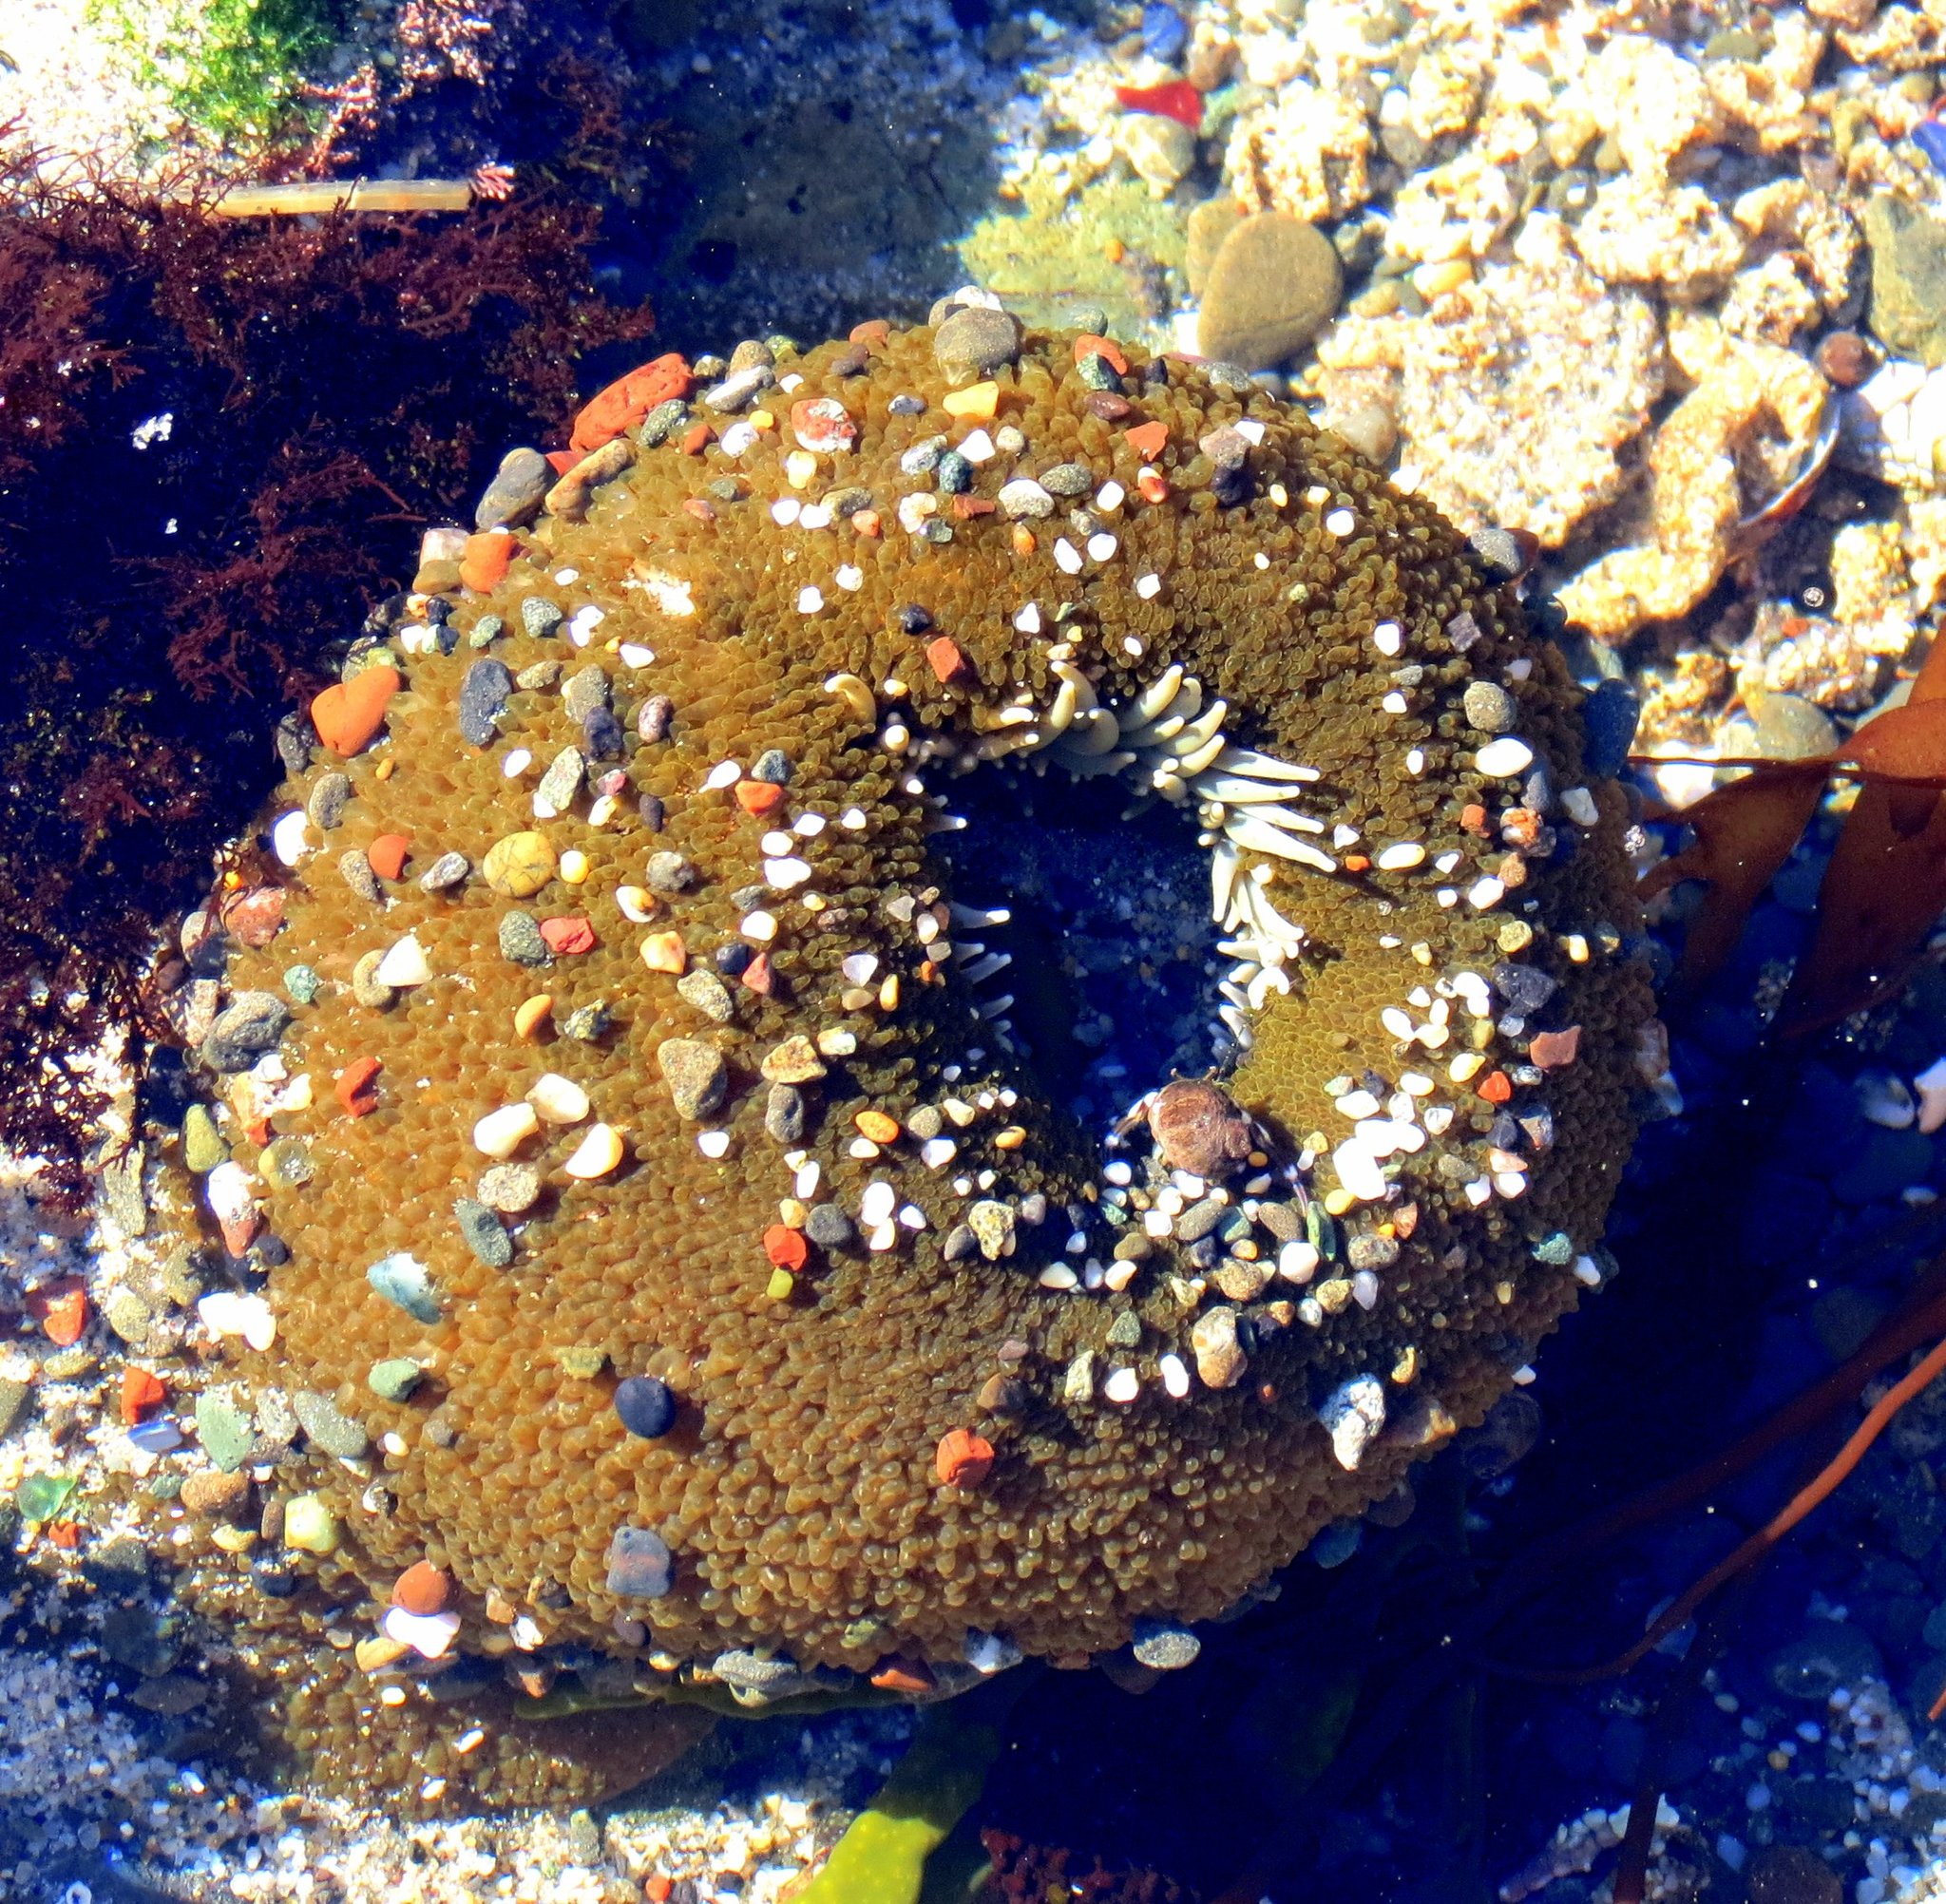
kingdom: Animalia
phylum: Cnidaria
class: Anthozoa
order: Actiniaria
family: Actiniidae
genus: Anthopleura
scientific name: Anthopleura xanthogrammica
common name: Giant green anemone
